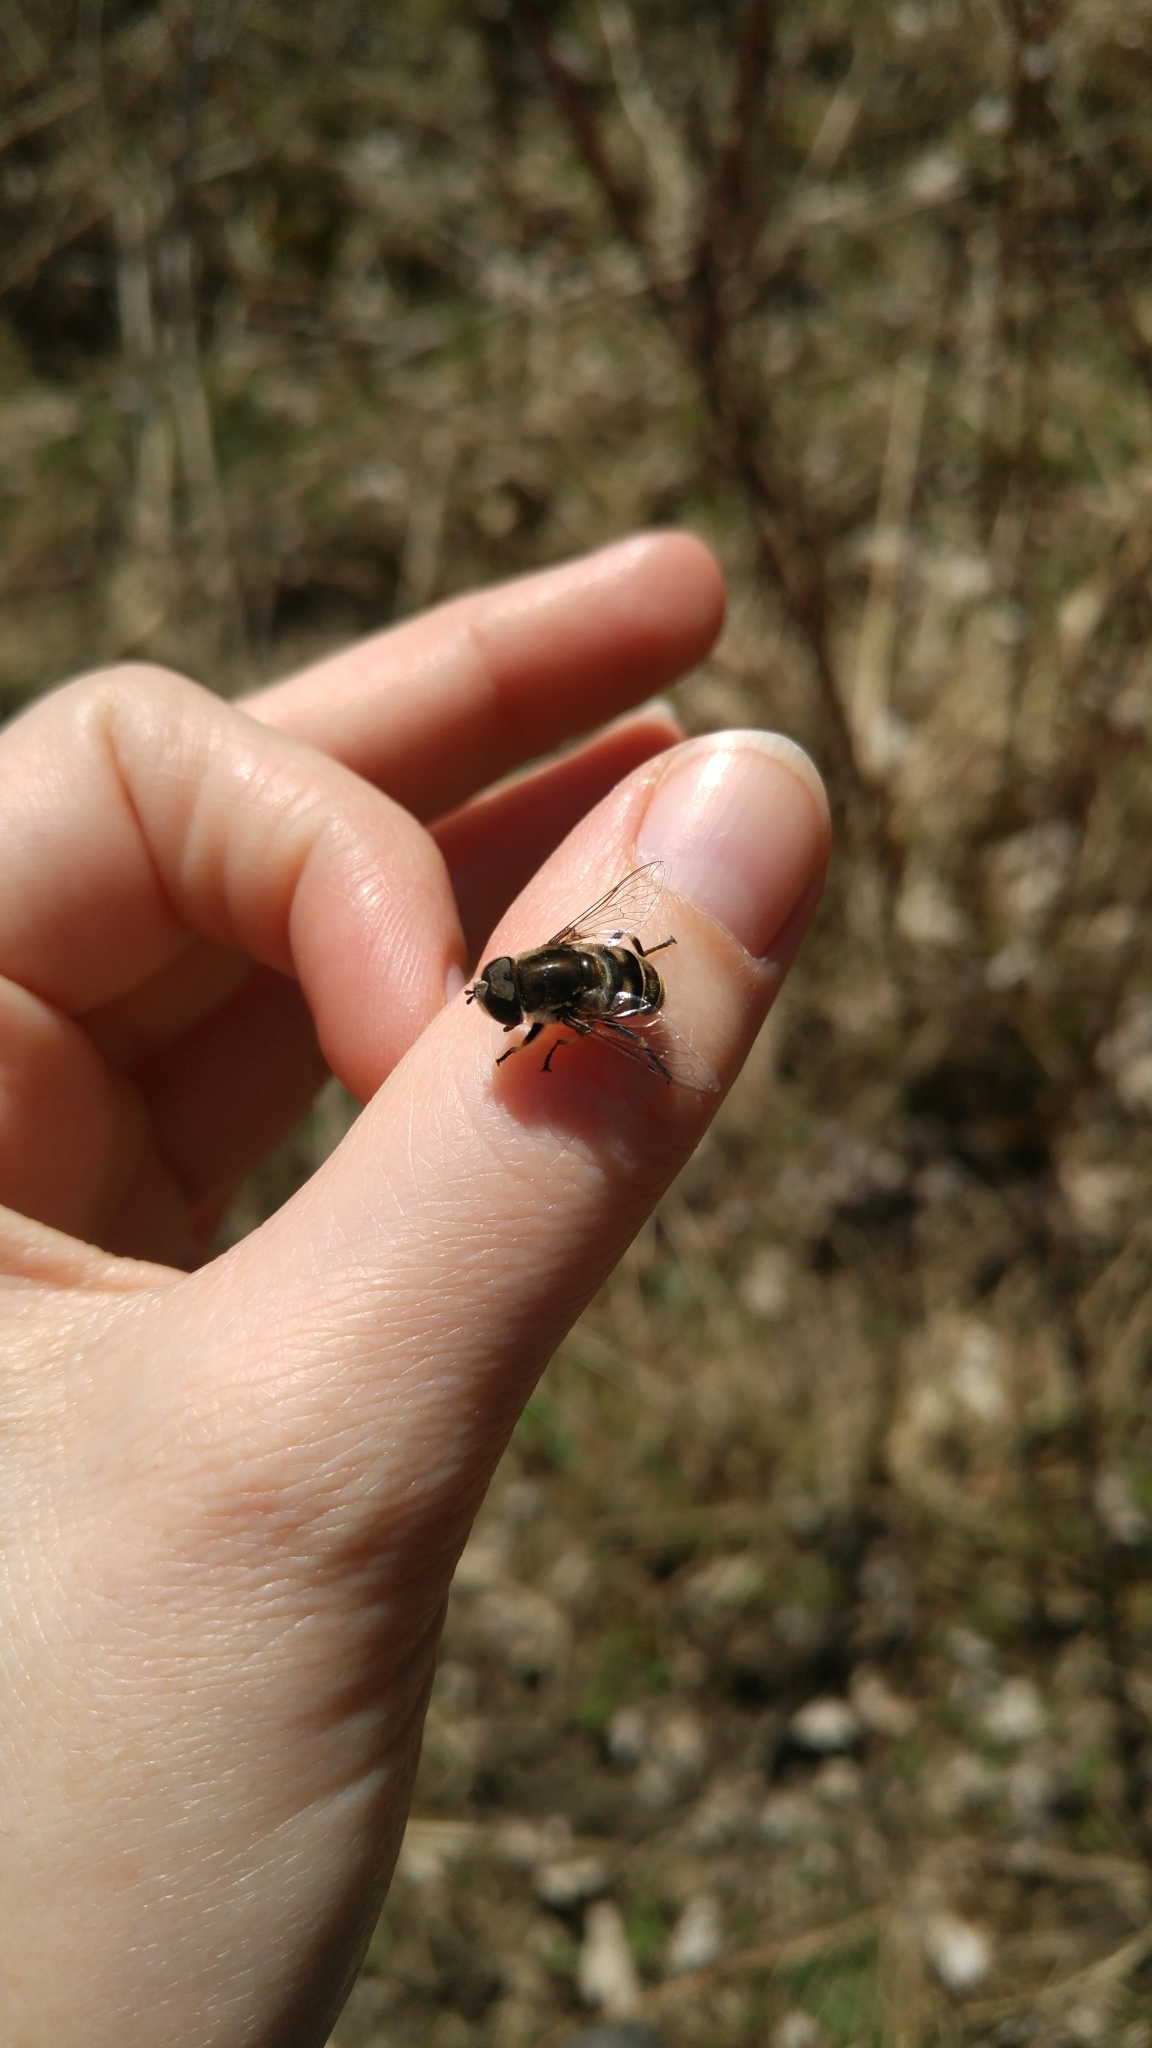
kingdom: Animalia
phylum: Arthropoda
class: Insecta
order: Diptera
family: Syrphidae
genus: Eristalis
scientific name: Eristalis dimidiata
